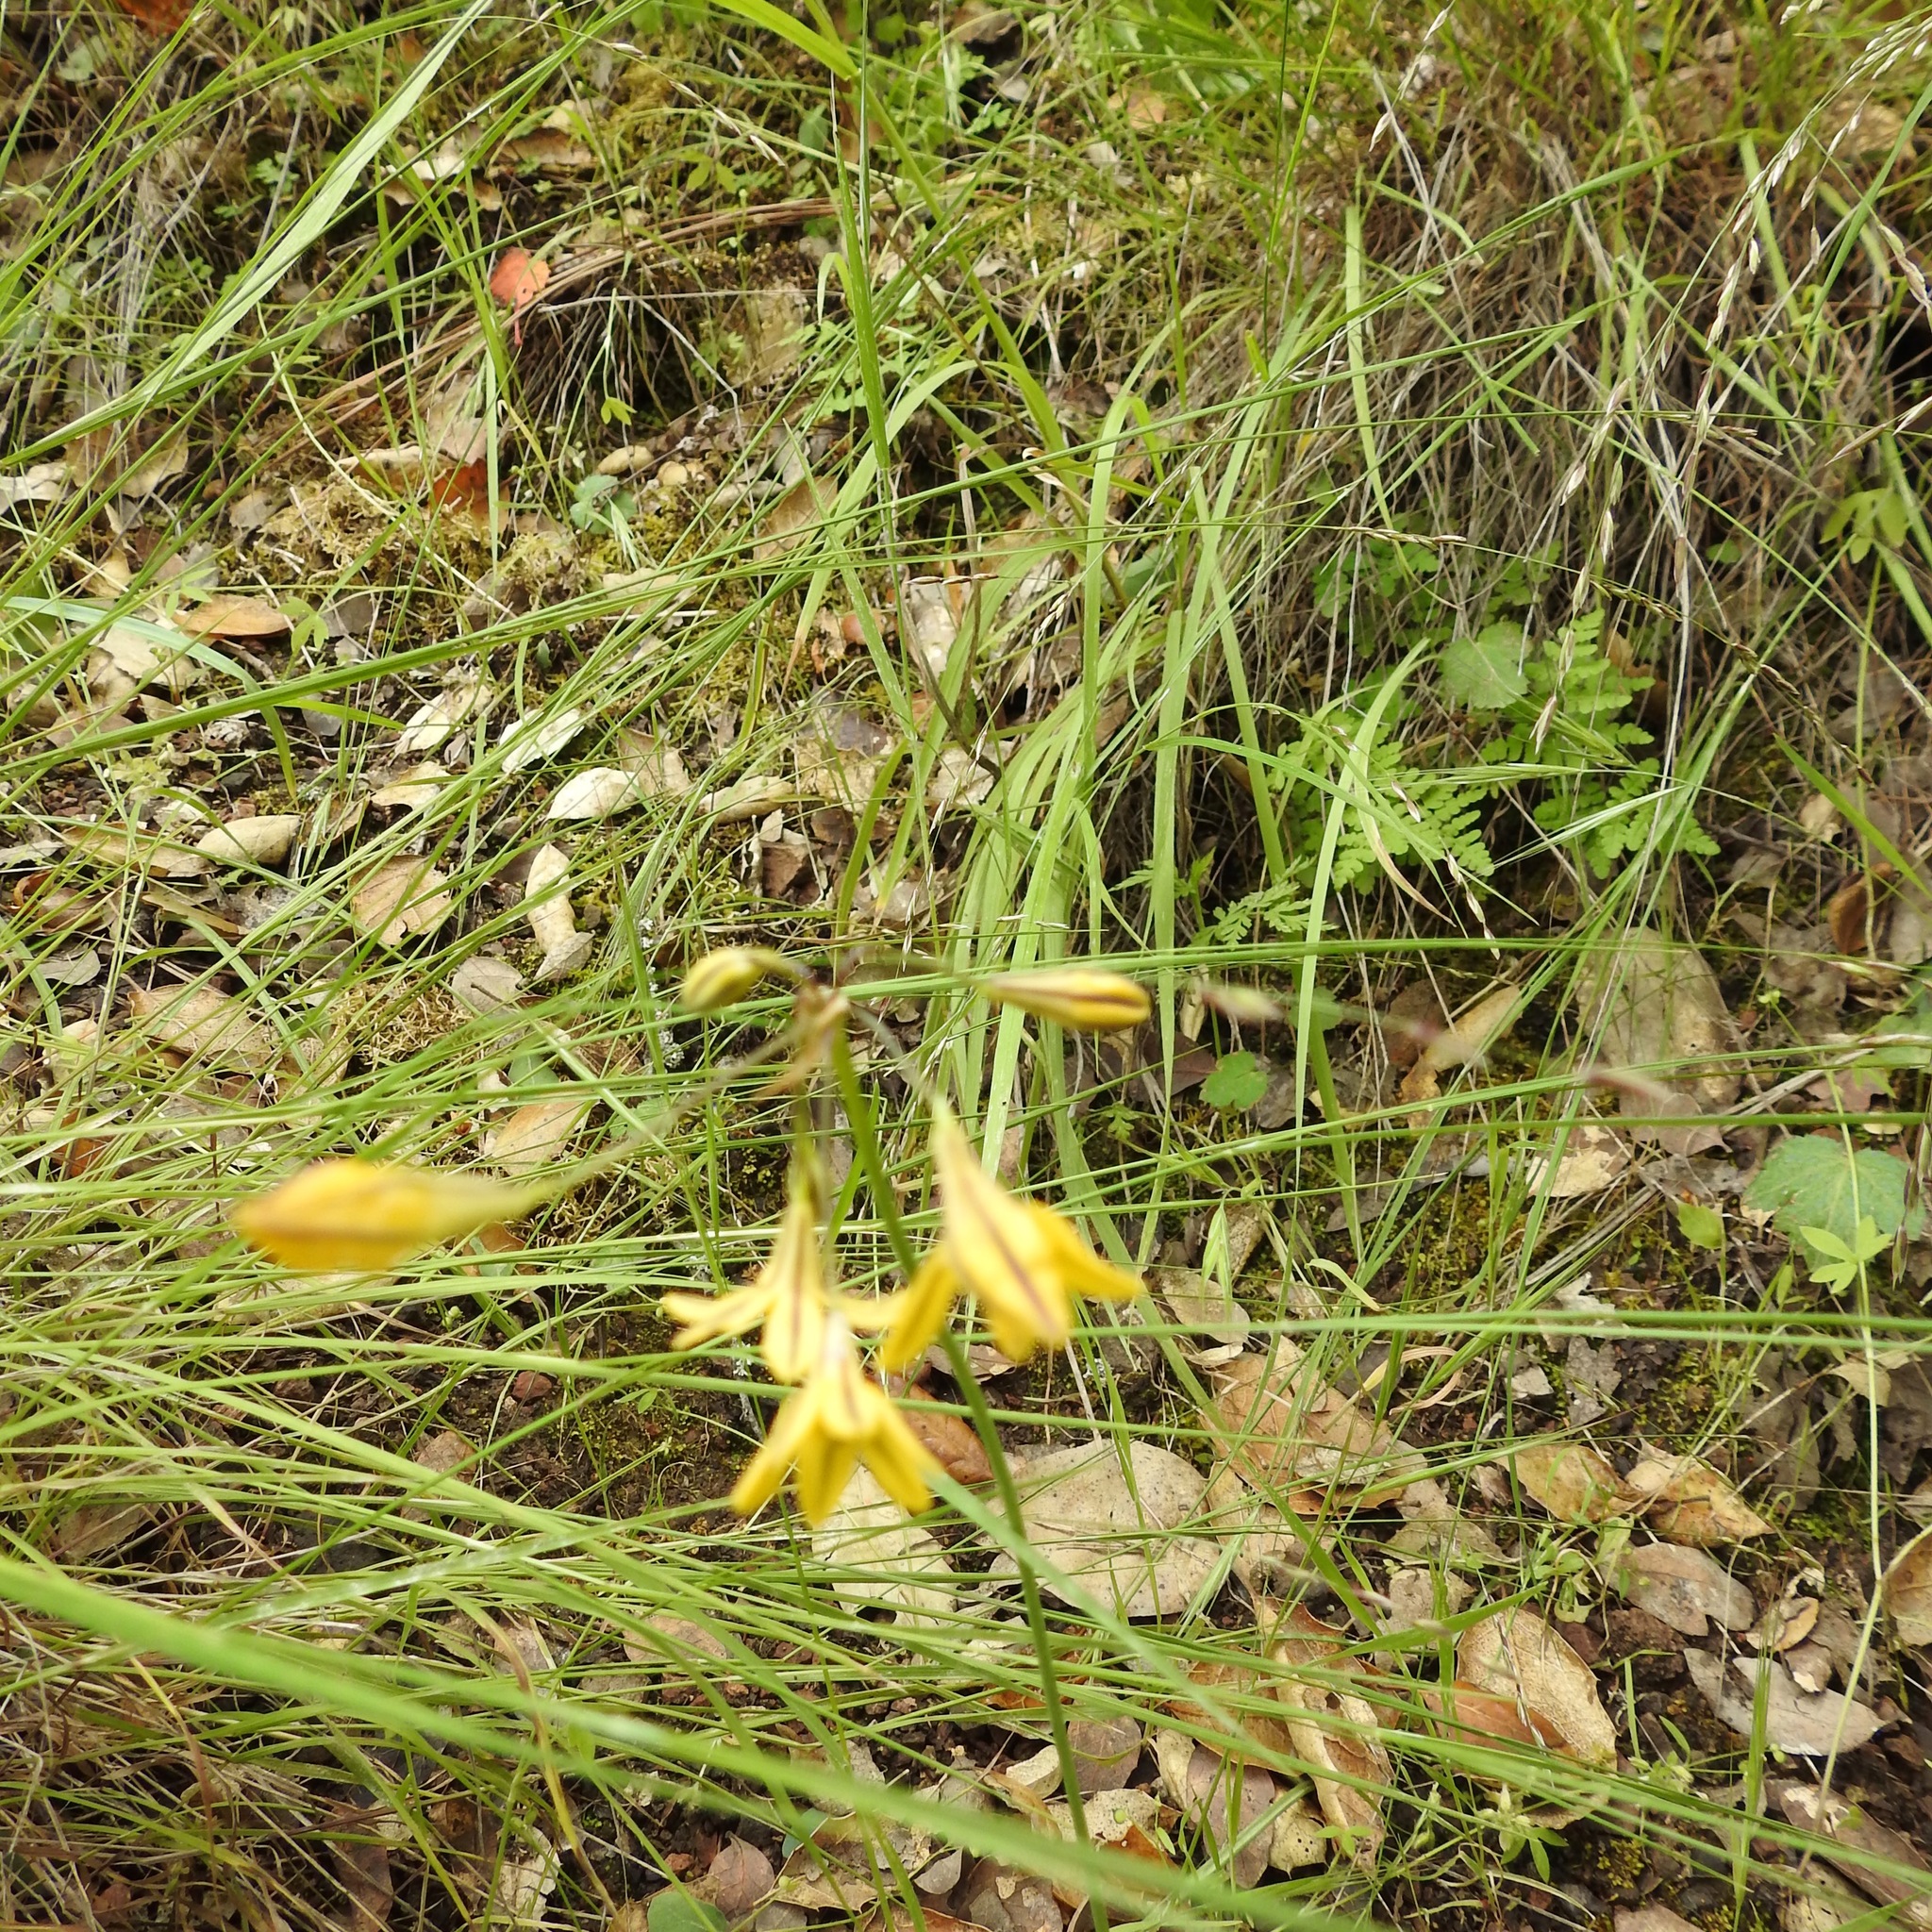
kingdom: Plantae
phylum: Tracheophyta
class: Liliopsida
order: Asparagales
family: Asparagaceae
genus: Triteleia
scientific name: Triteleia lugens
